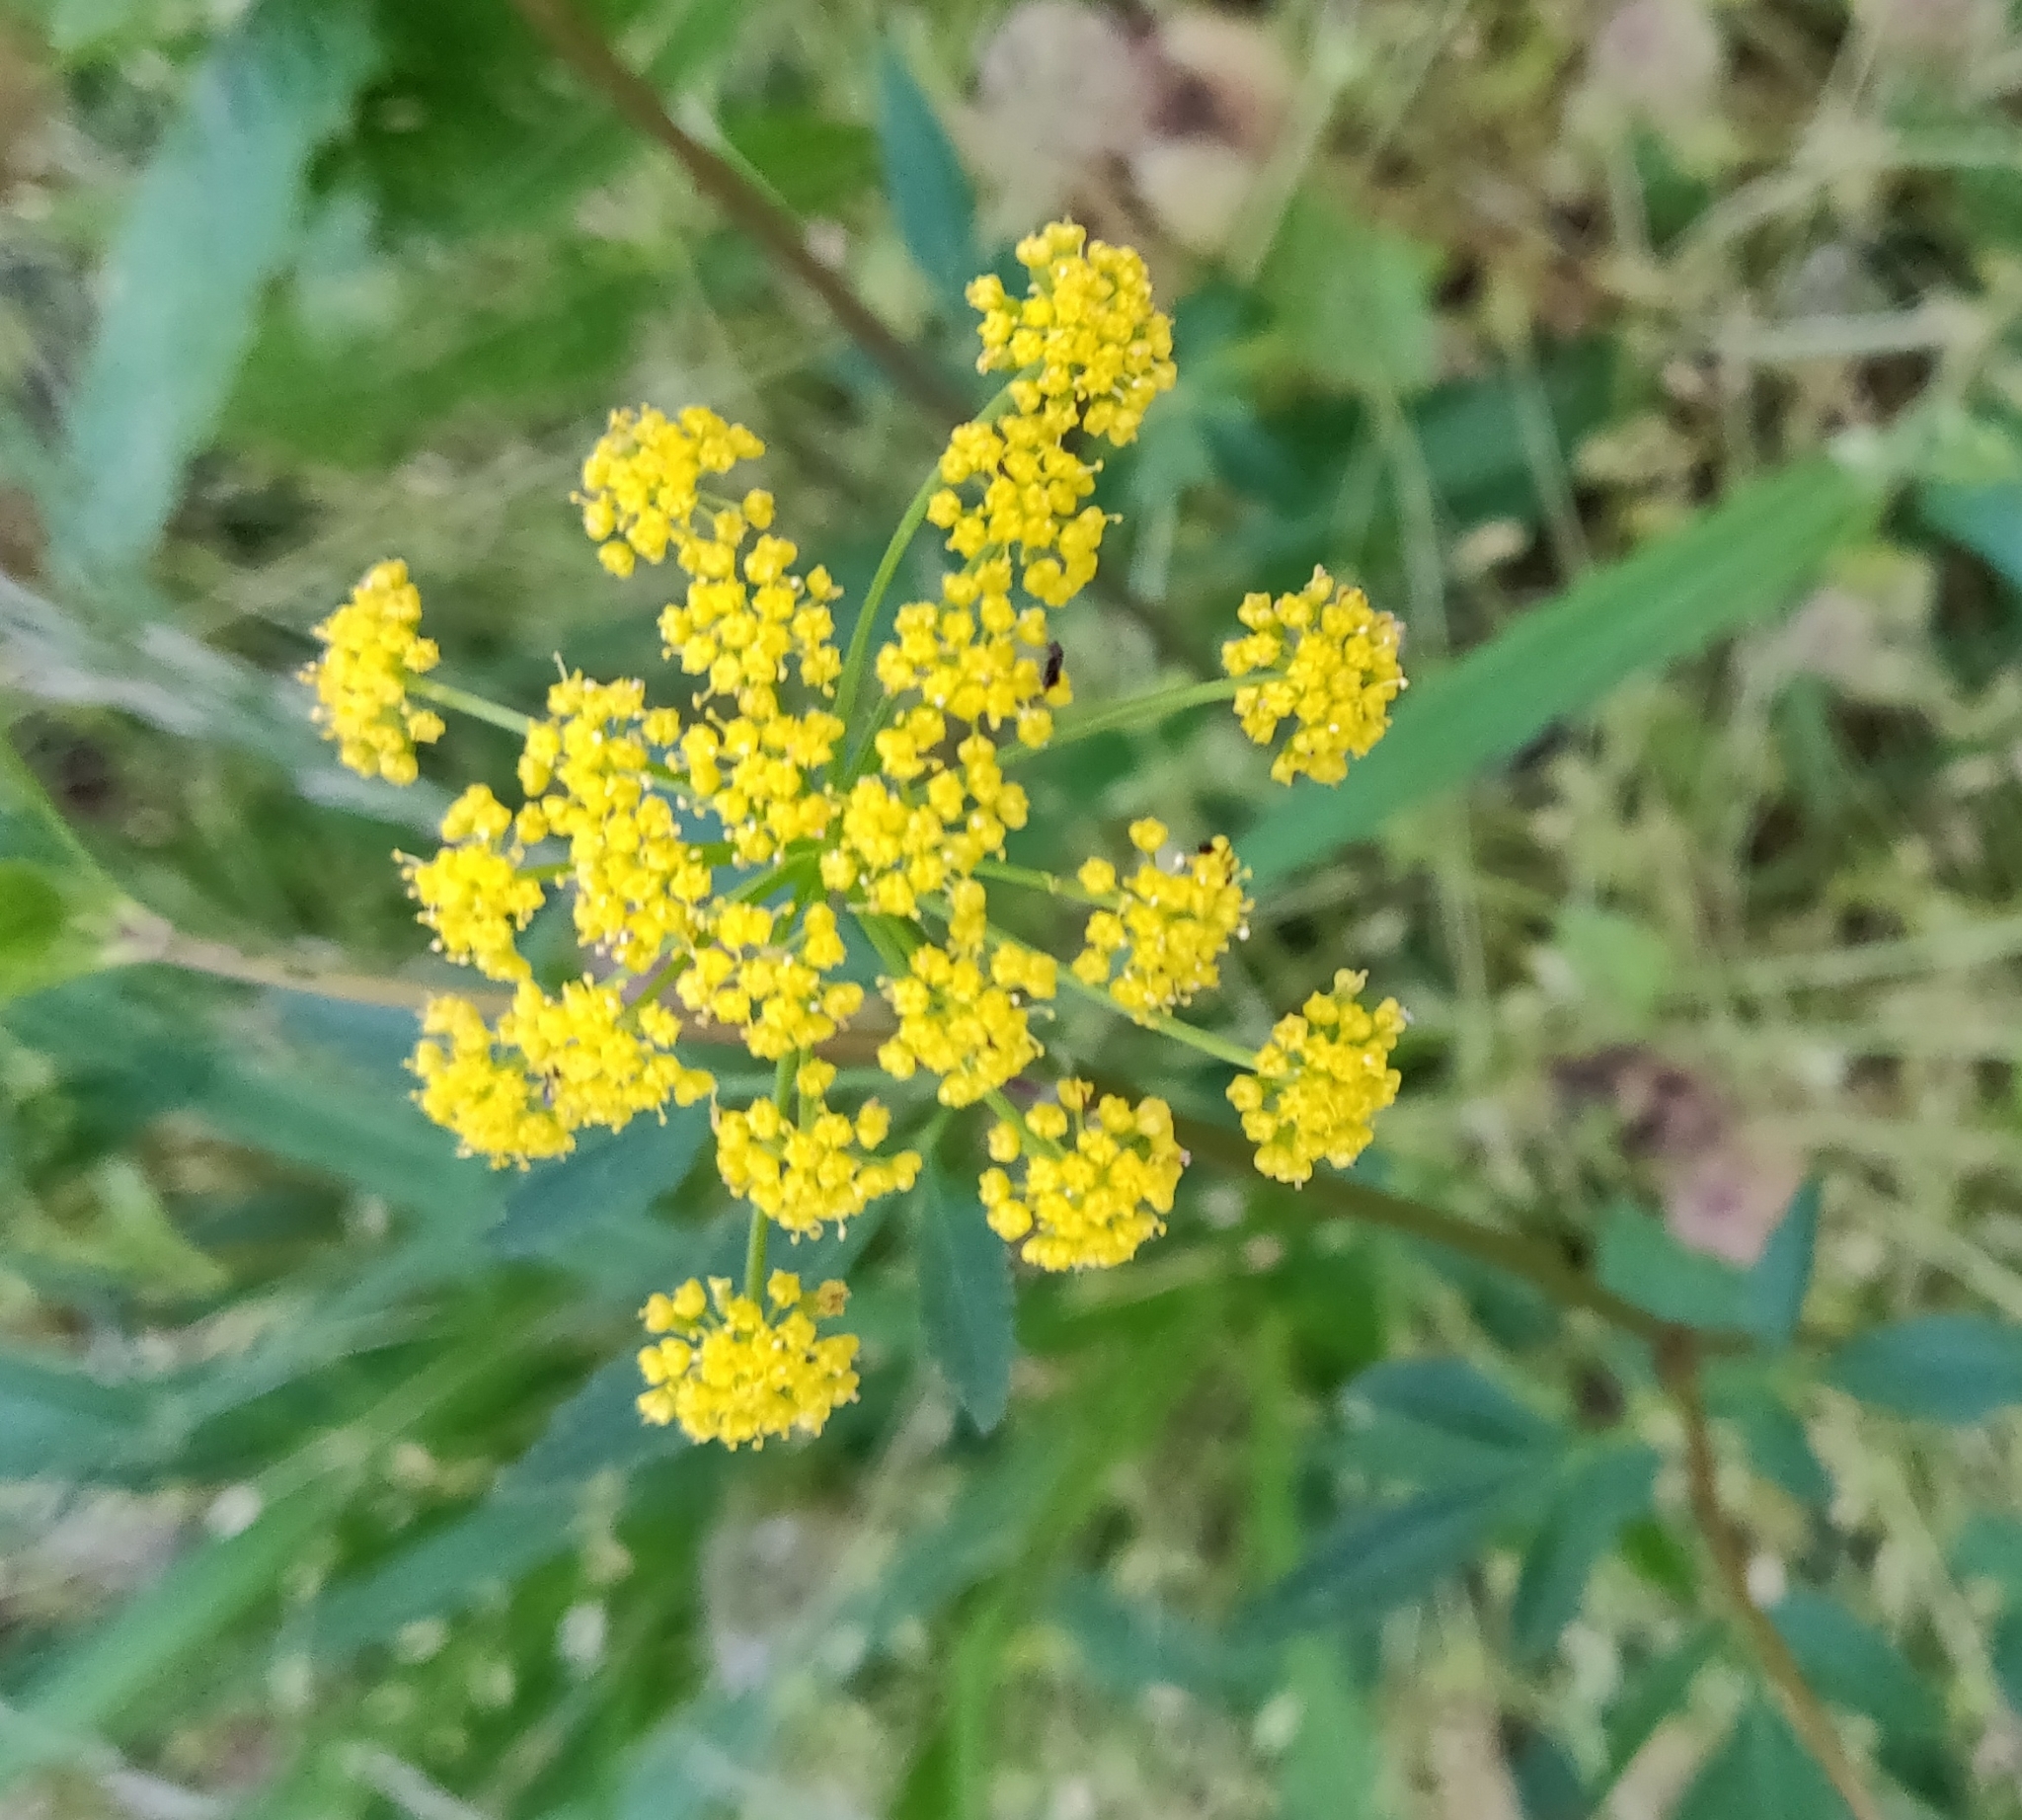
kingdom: Plantae
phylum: Tracheophyta
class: Magnoliopsida
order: Apiales
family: Apiaceae
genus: Zizia
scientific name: Zizia aurea
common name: Golden alexanders
